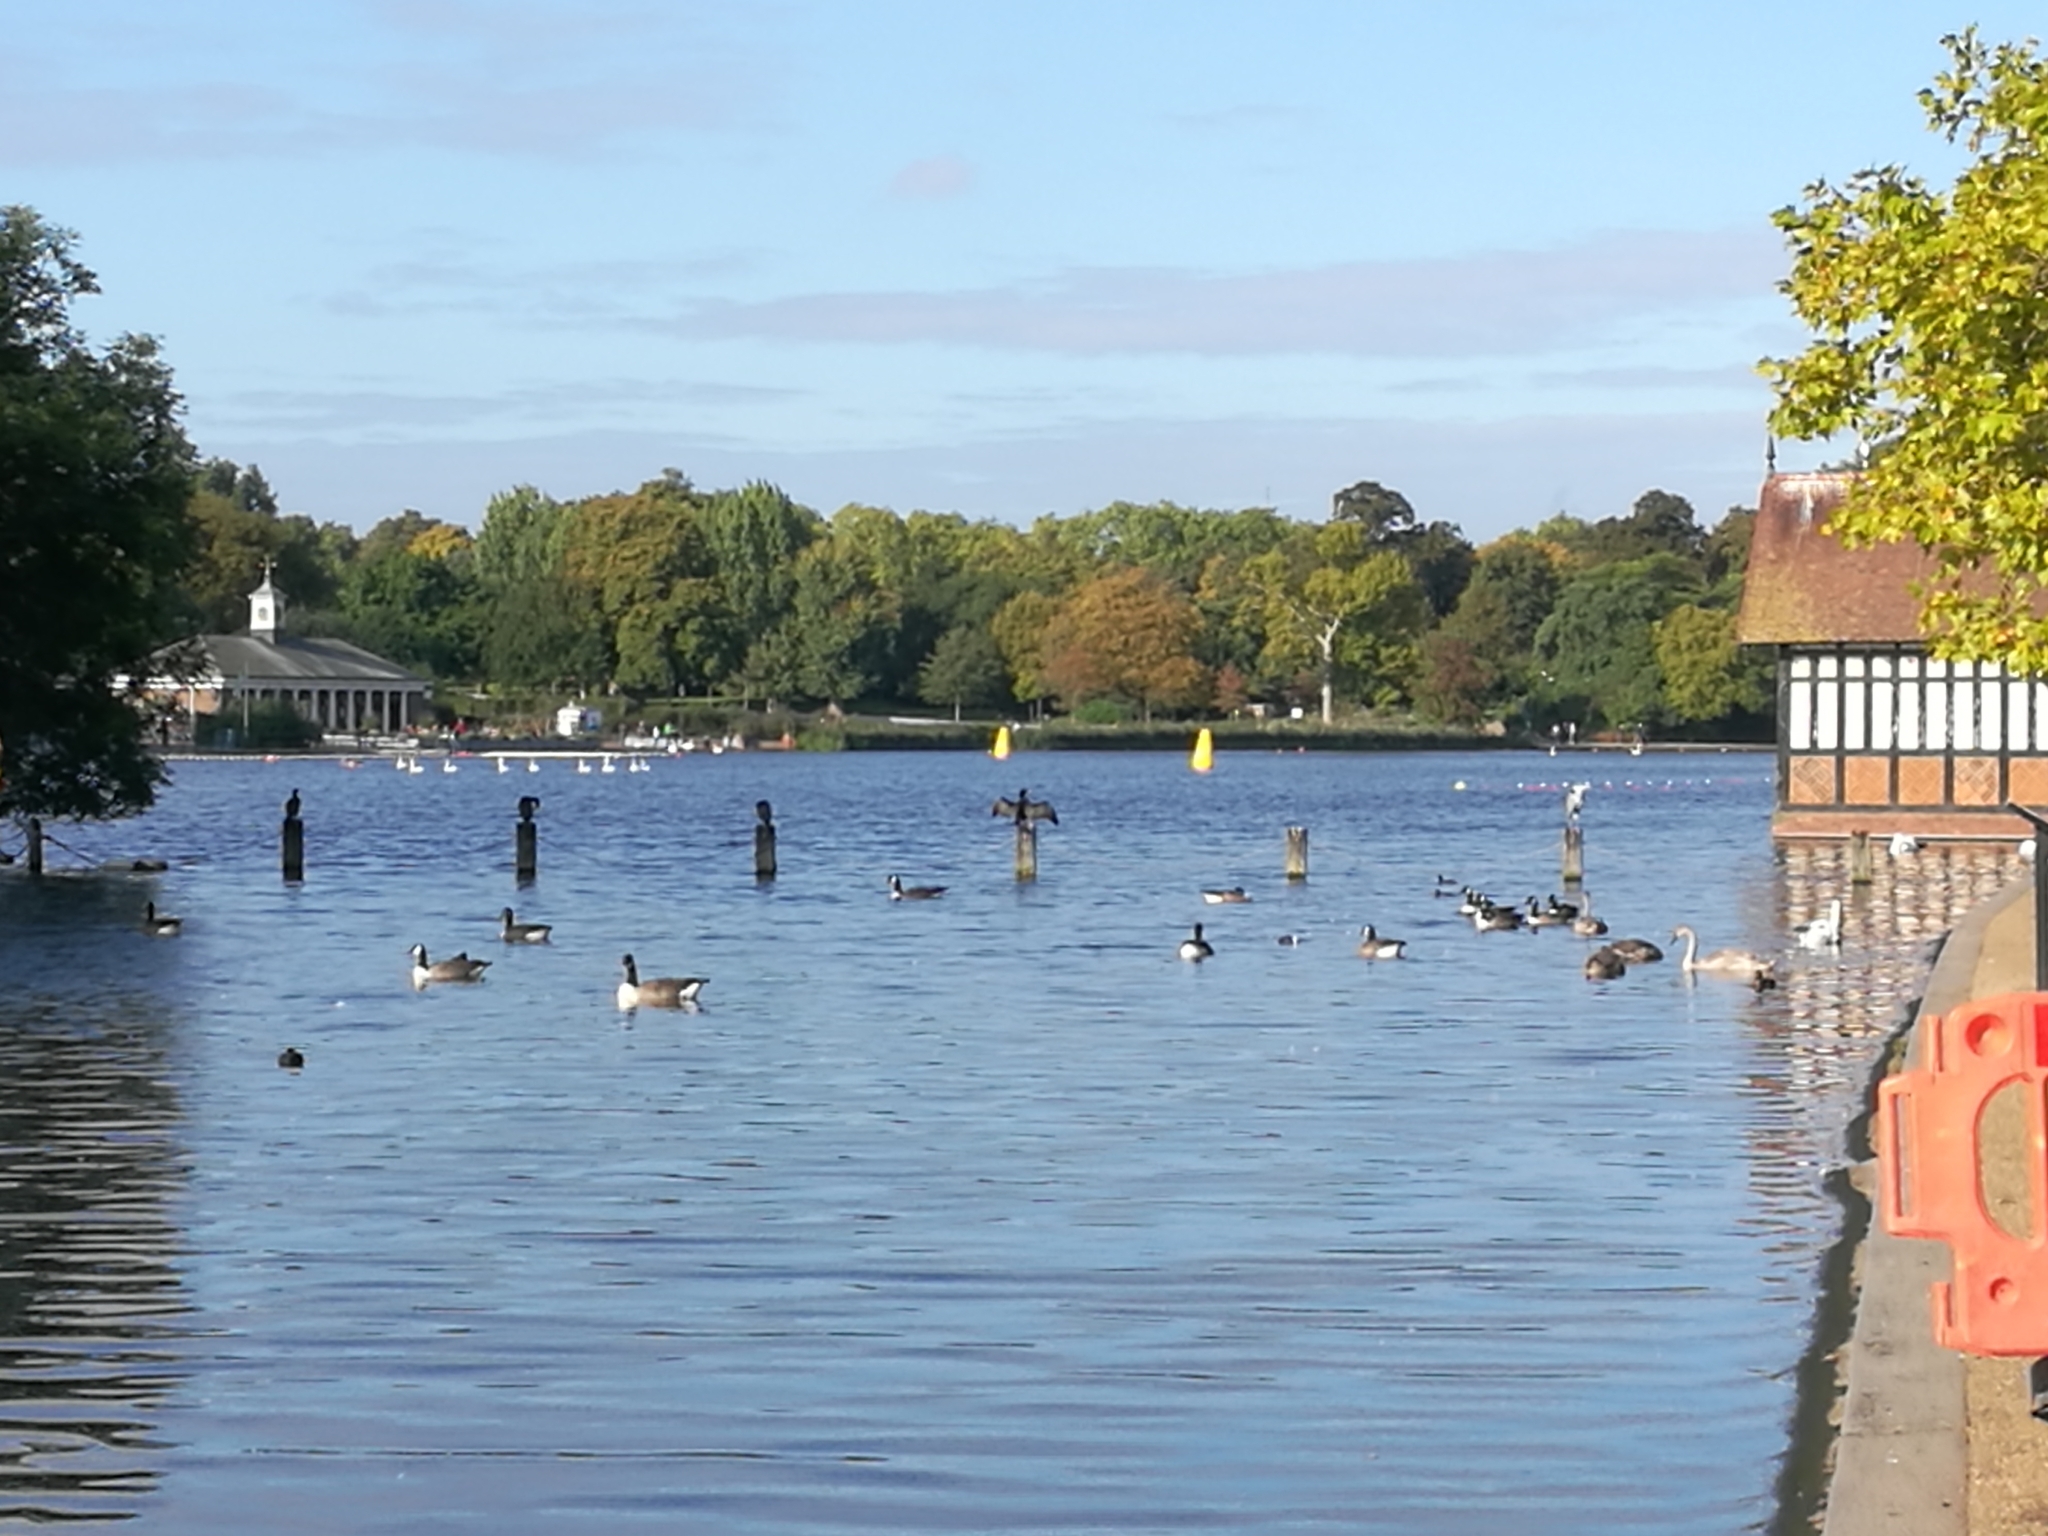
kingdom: Animalia
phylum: Chordata
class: Aves
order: Pelecaniformes
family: Ardeidae
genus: Ardea
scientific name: Ardea cinerea
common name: Grey heron
